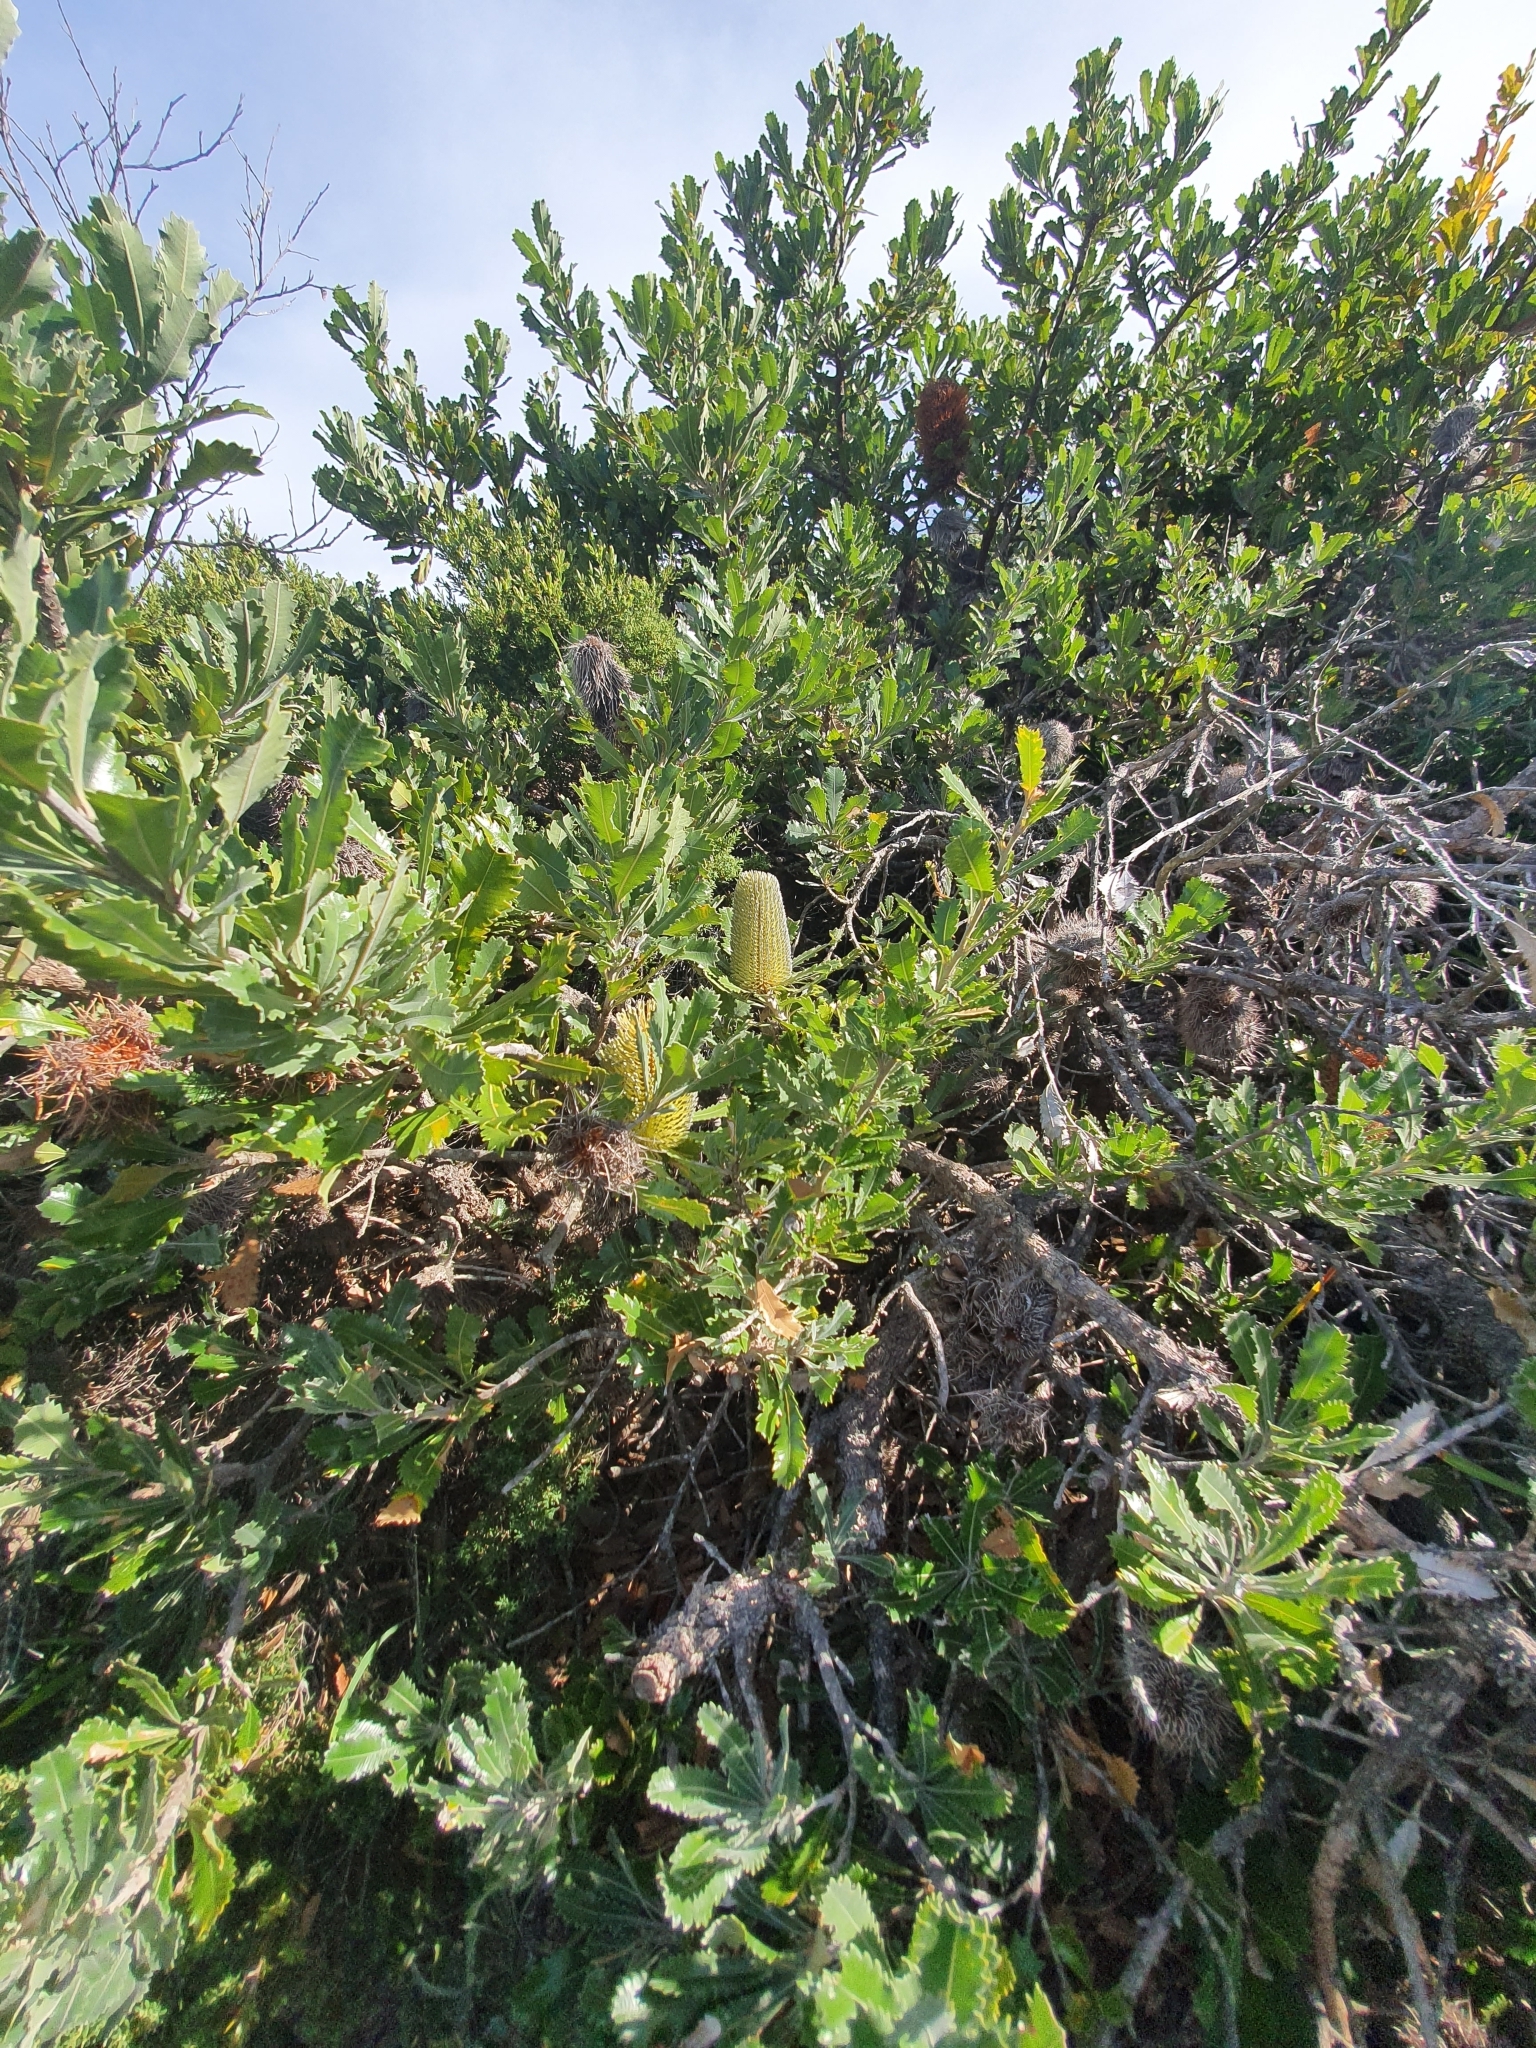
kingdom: Plantae
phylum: Tracheophyta
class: Magnoliopsida
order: Proteales
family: Proteaceae
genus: Banksia
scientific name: Banksia serrata
